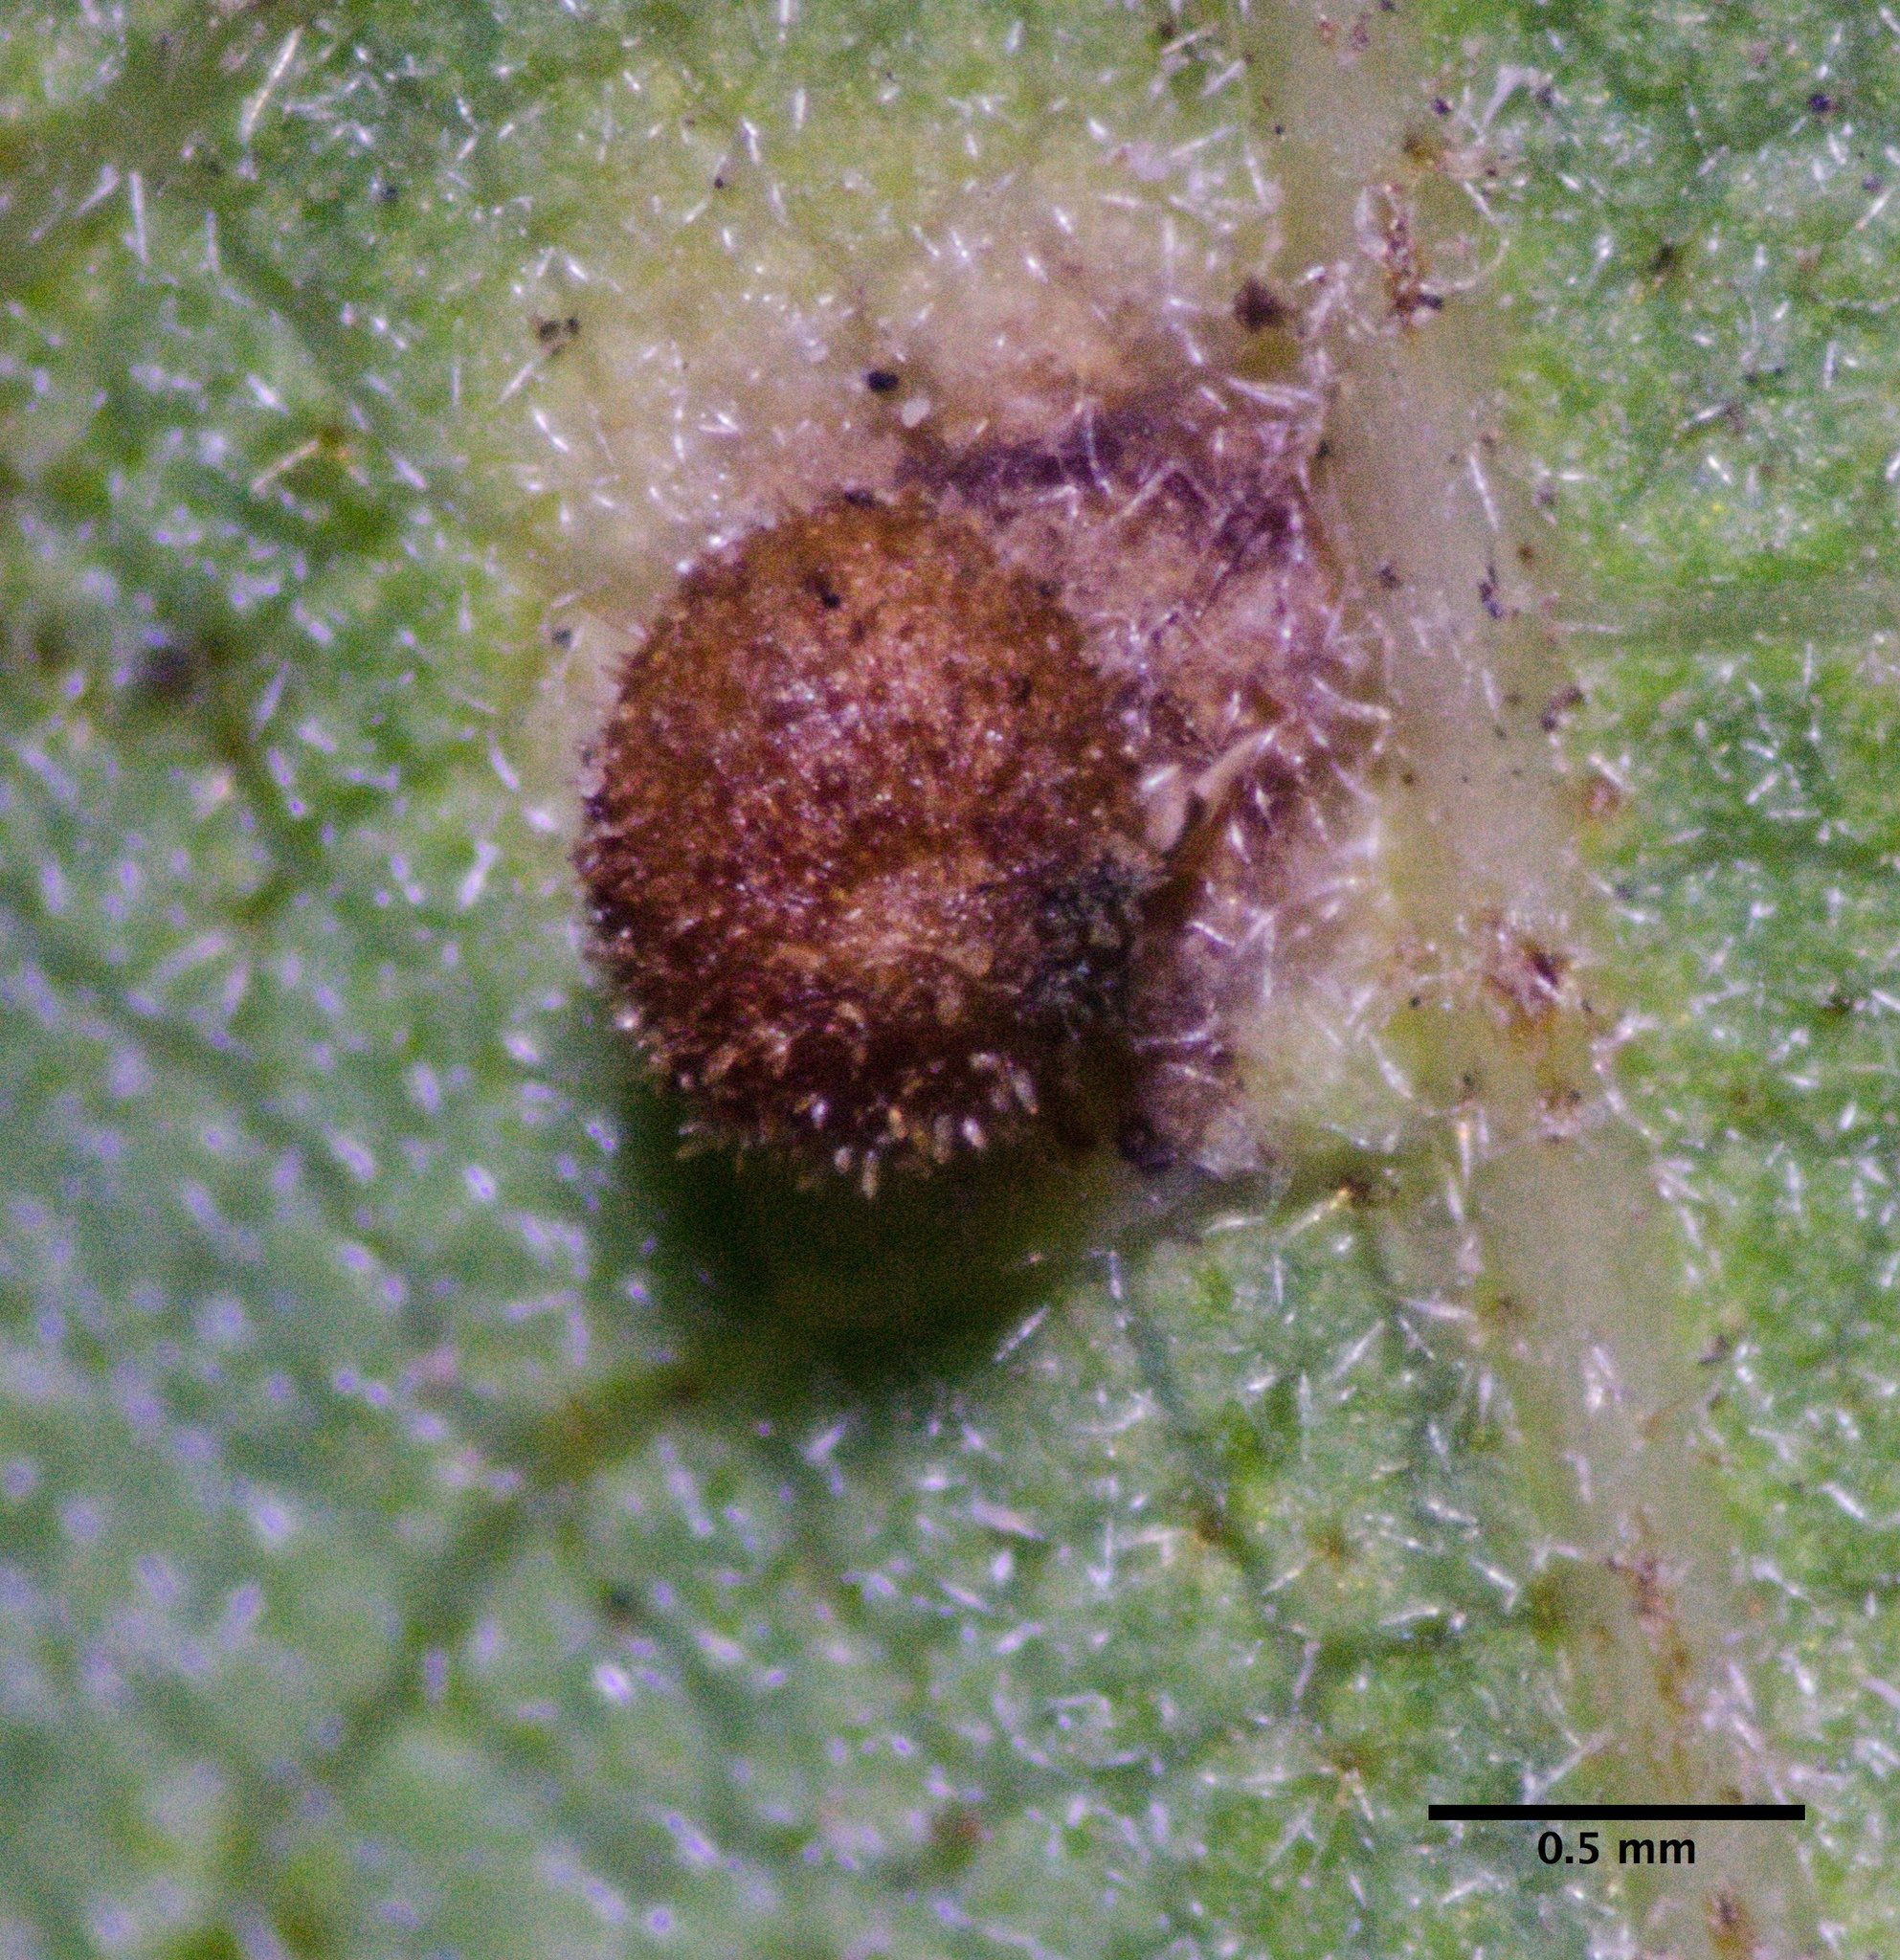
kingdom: Animalia
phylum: Arthropoda
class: Insecta
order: Hymenoptera
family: Cynipidae
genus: Neuroterus
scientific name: Neuroterus saltarius
